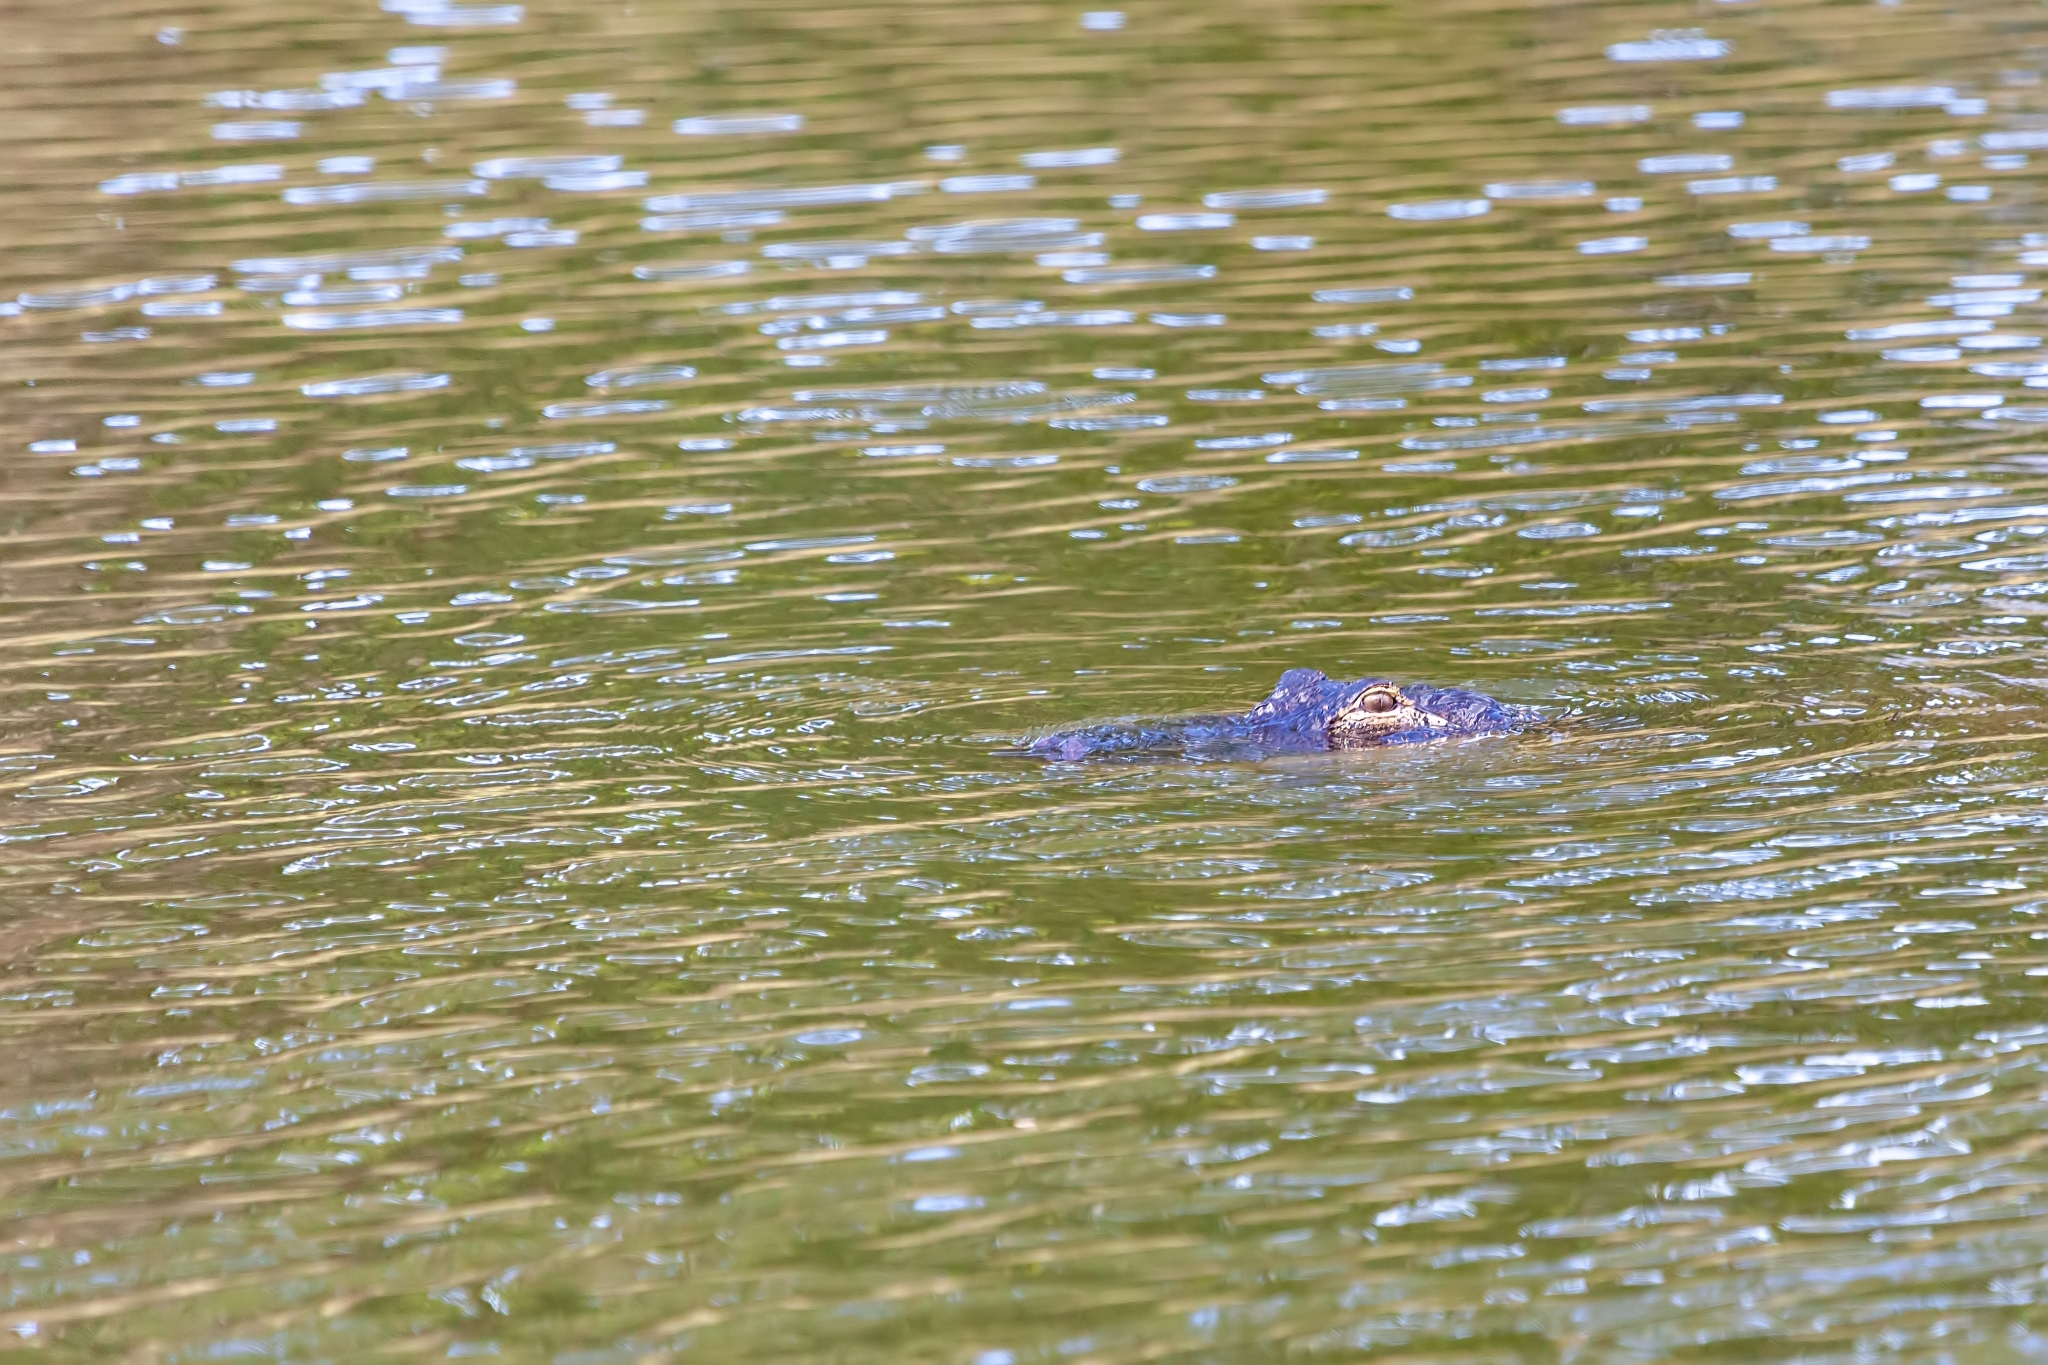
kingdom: Animalia
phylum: Chordata
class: Crocodylia
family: Alligatoridae
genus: Alligator
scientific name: Alligator mississippiensis
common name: American alligator
